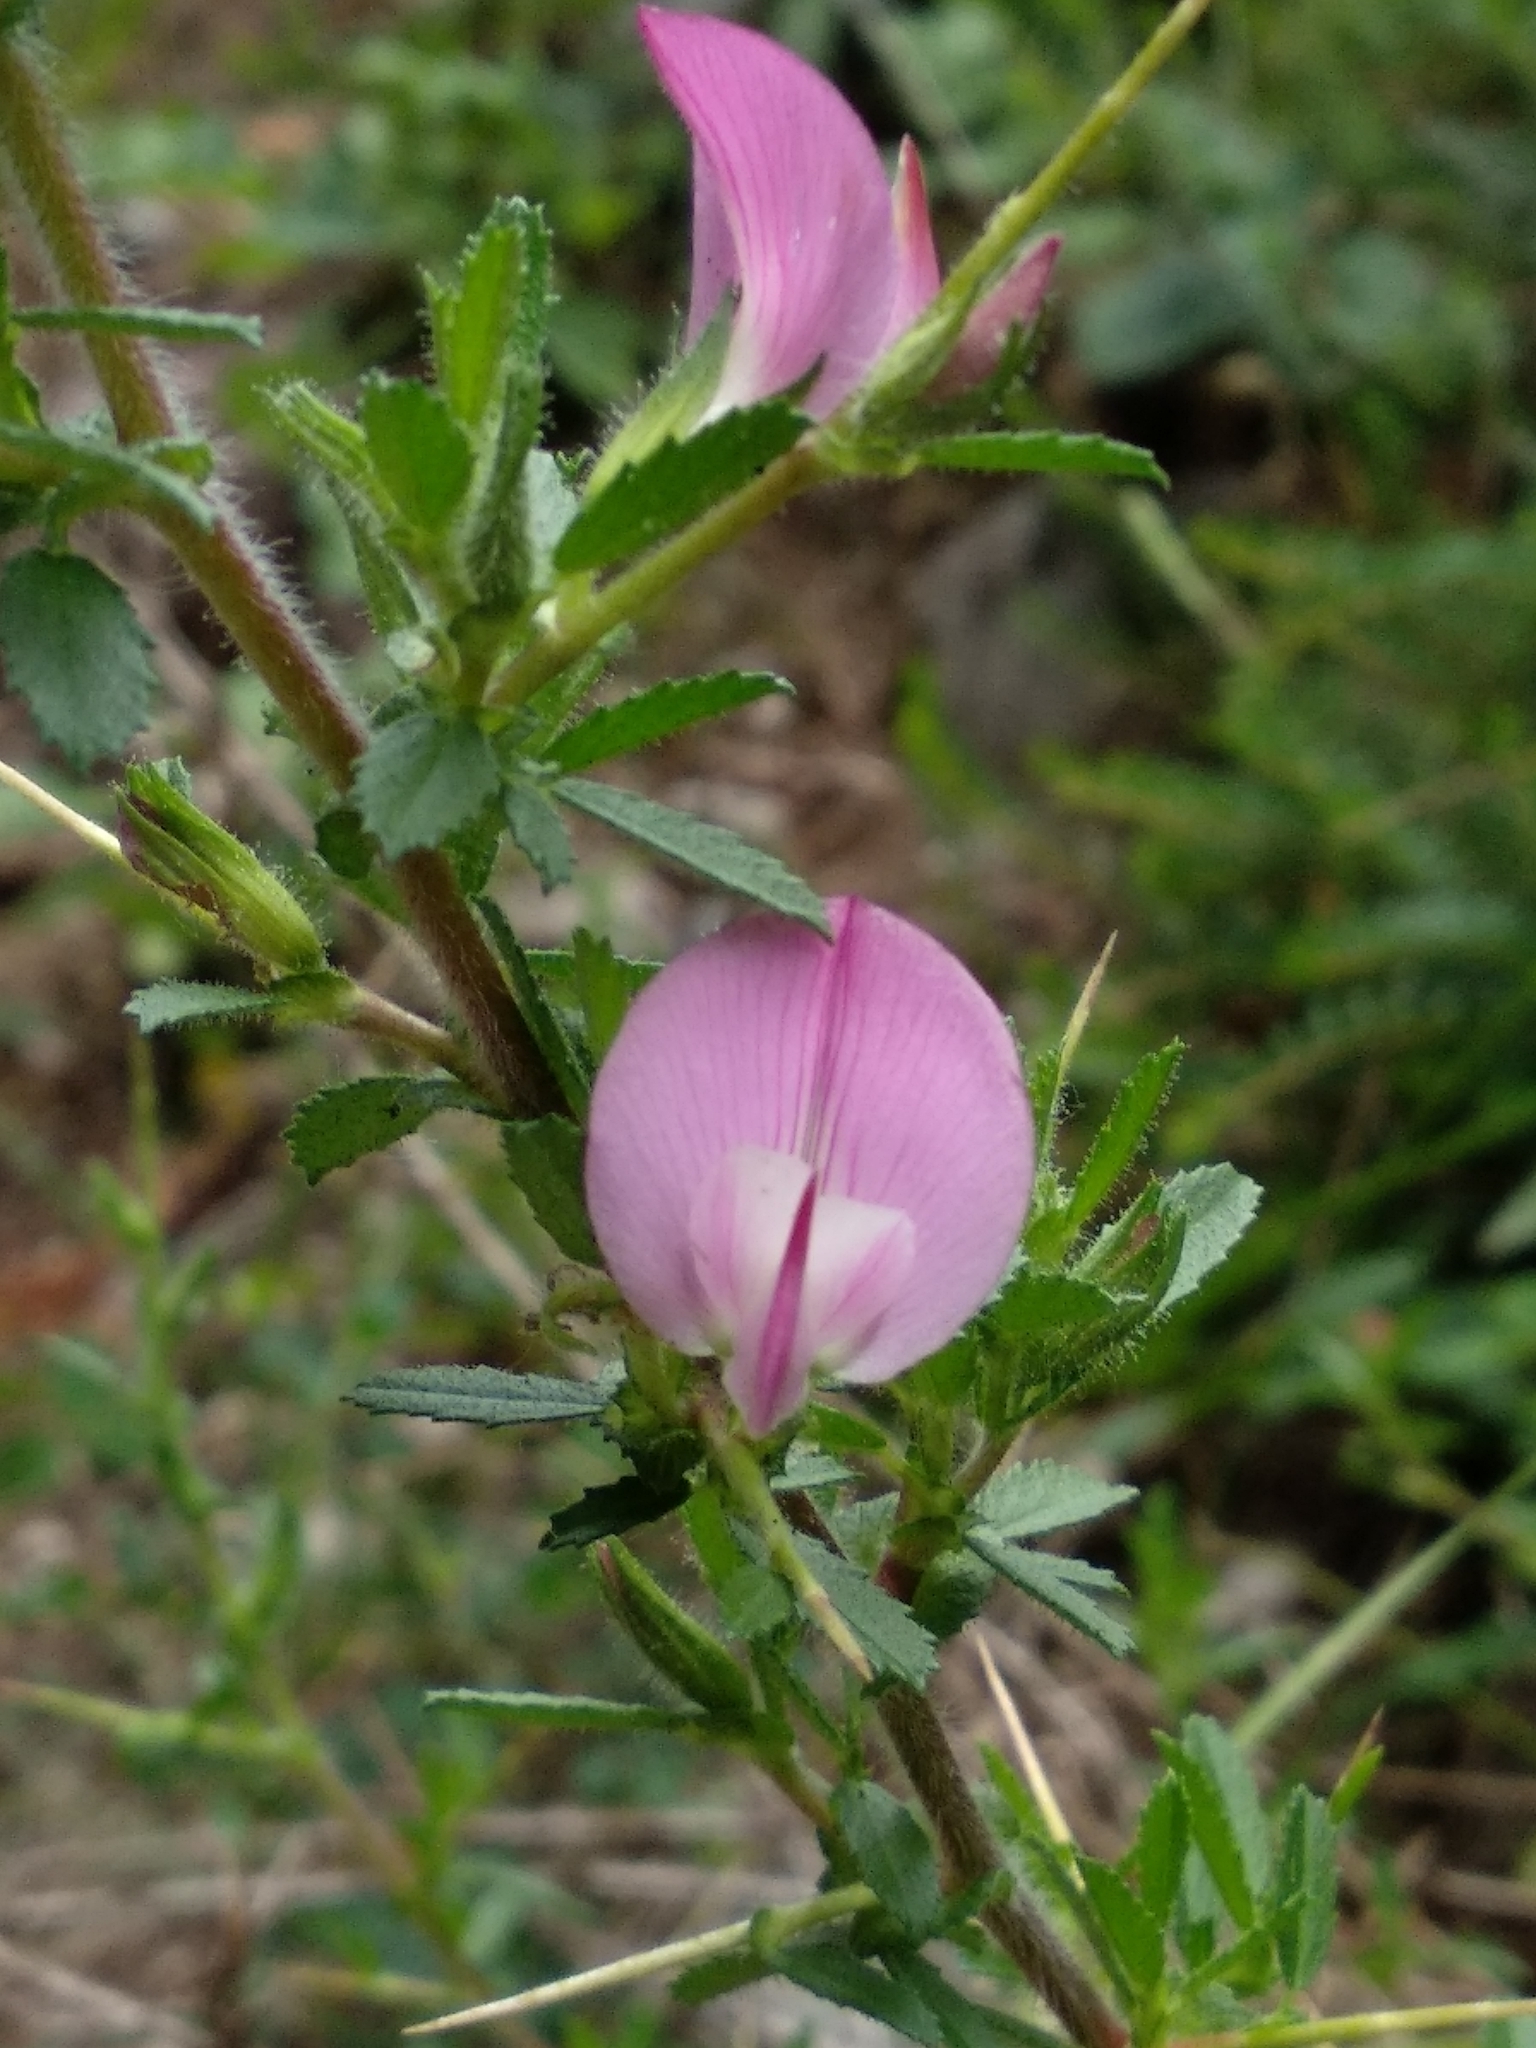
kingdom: Plantae
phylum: Tracheophyta
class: Magnoliopsida
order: Fabales
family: Fabaceae
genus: Ononis
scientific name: Ononis spinosa
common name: Spiny restharrow
